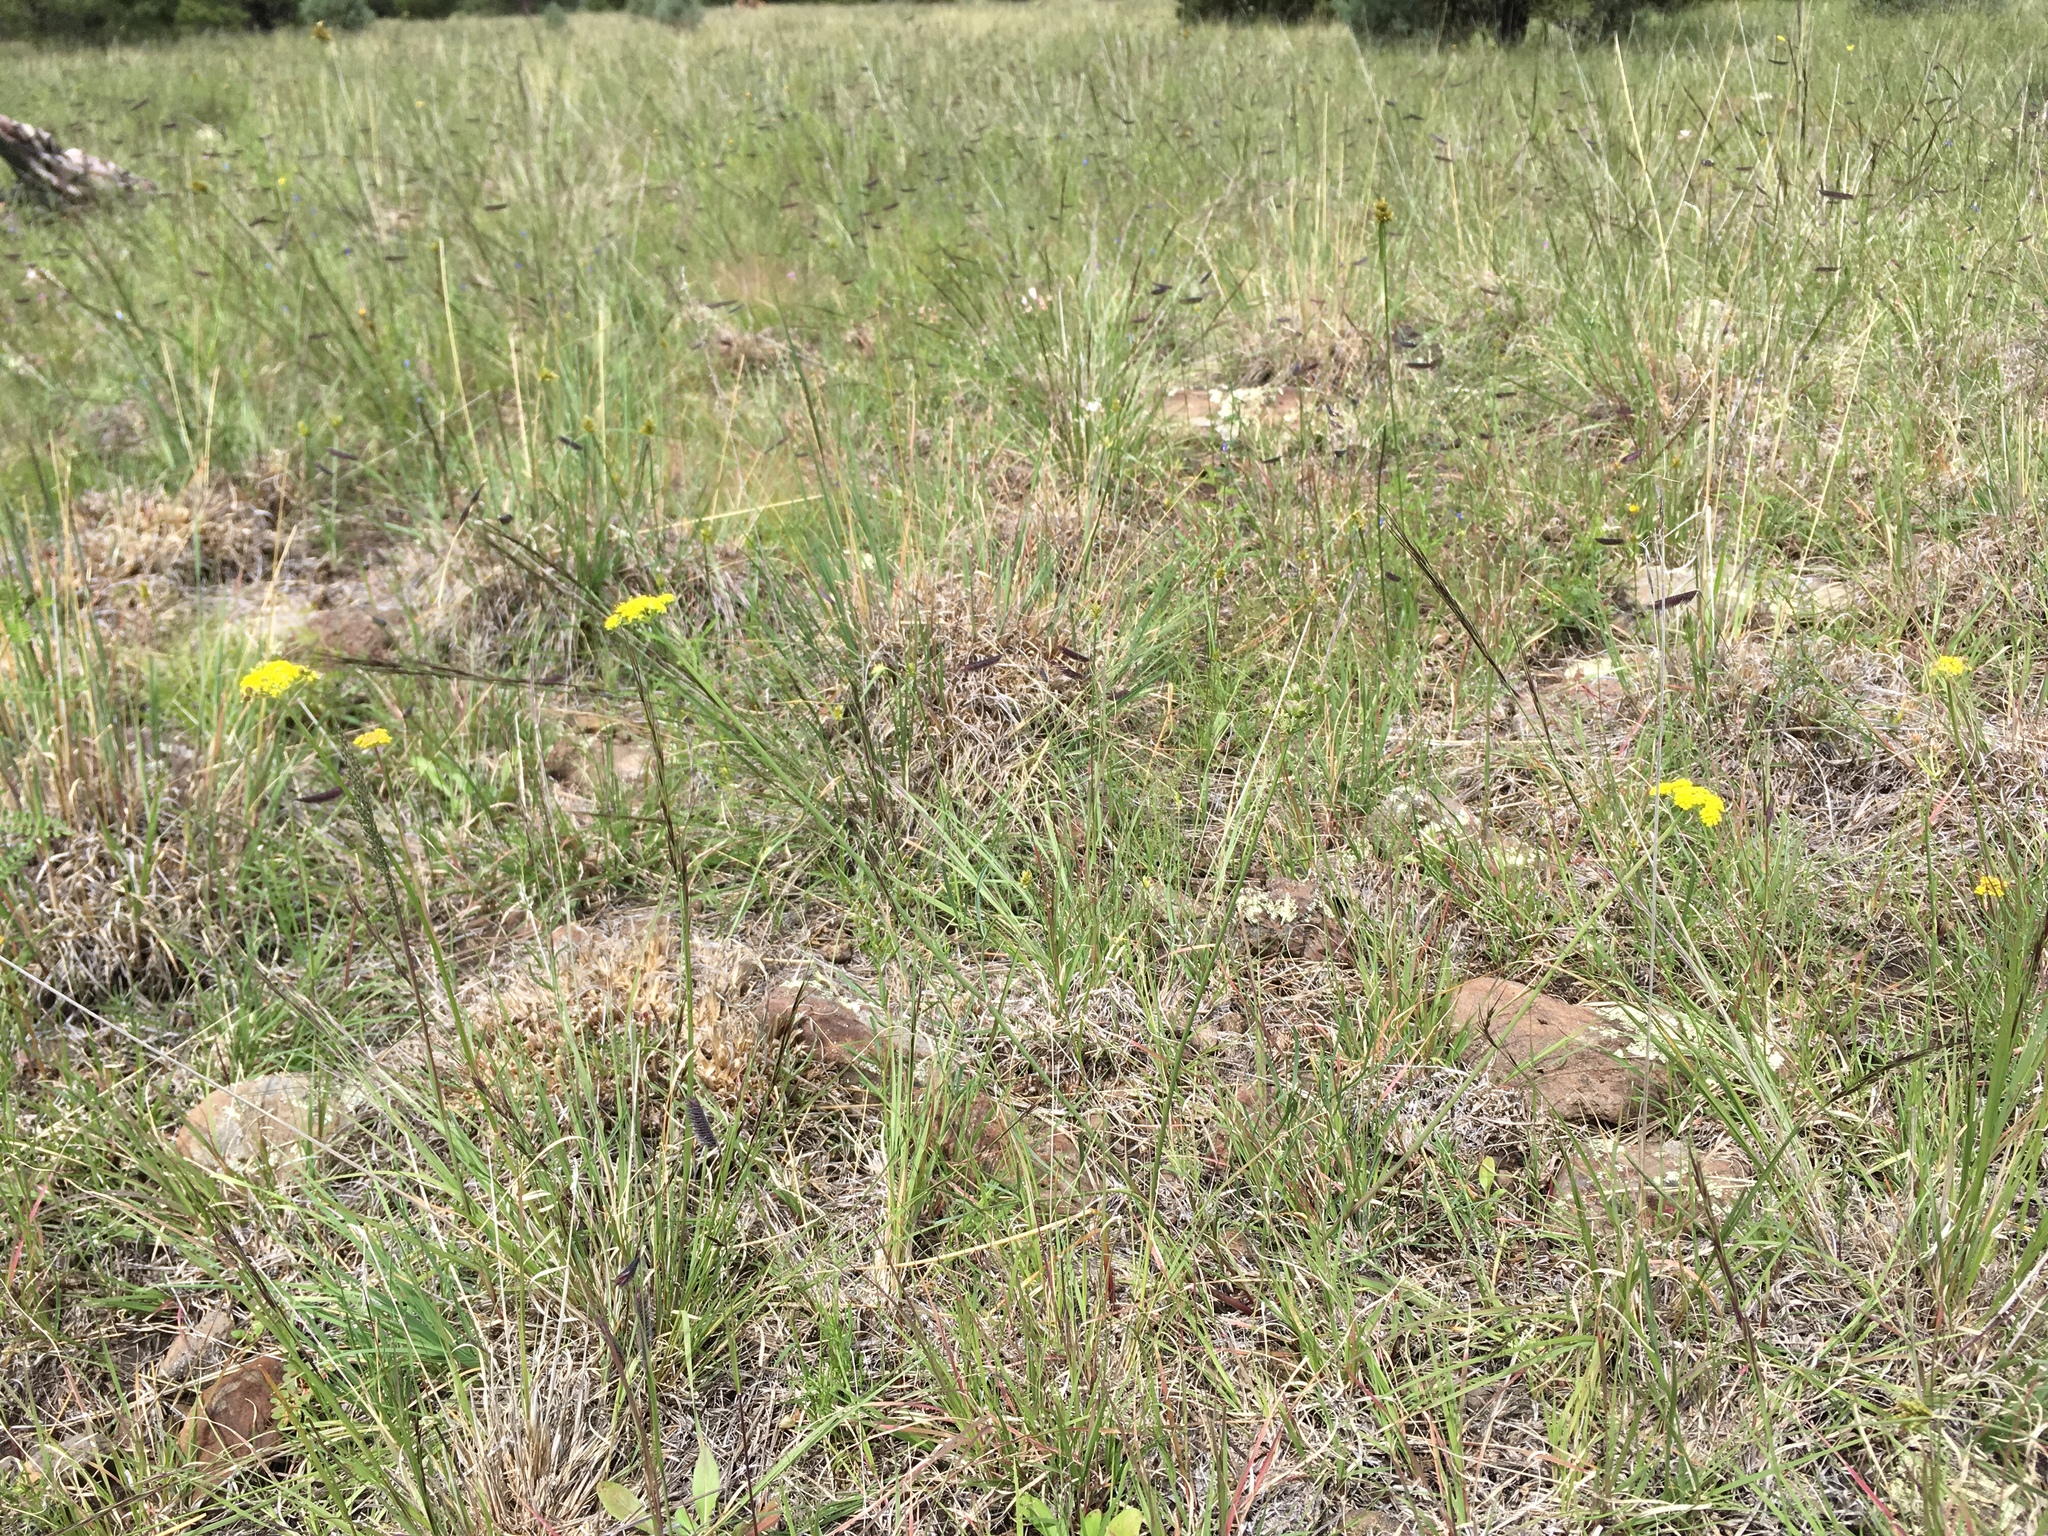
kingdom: Plantae
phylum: Tracheophyta
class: Magnoliopsida
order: Apiales
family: Apiaceae
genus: Cymopterus
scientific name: Cymopterus lemmonii
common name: Lemmon's spring-parsley
